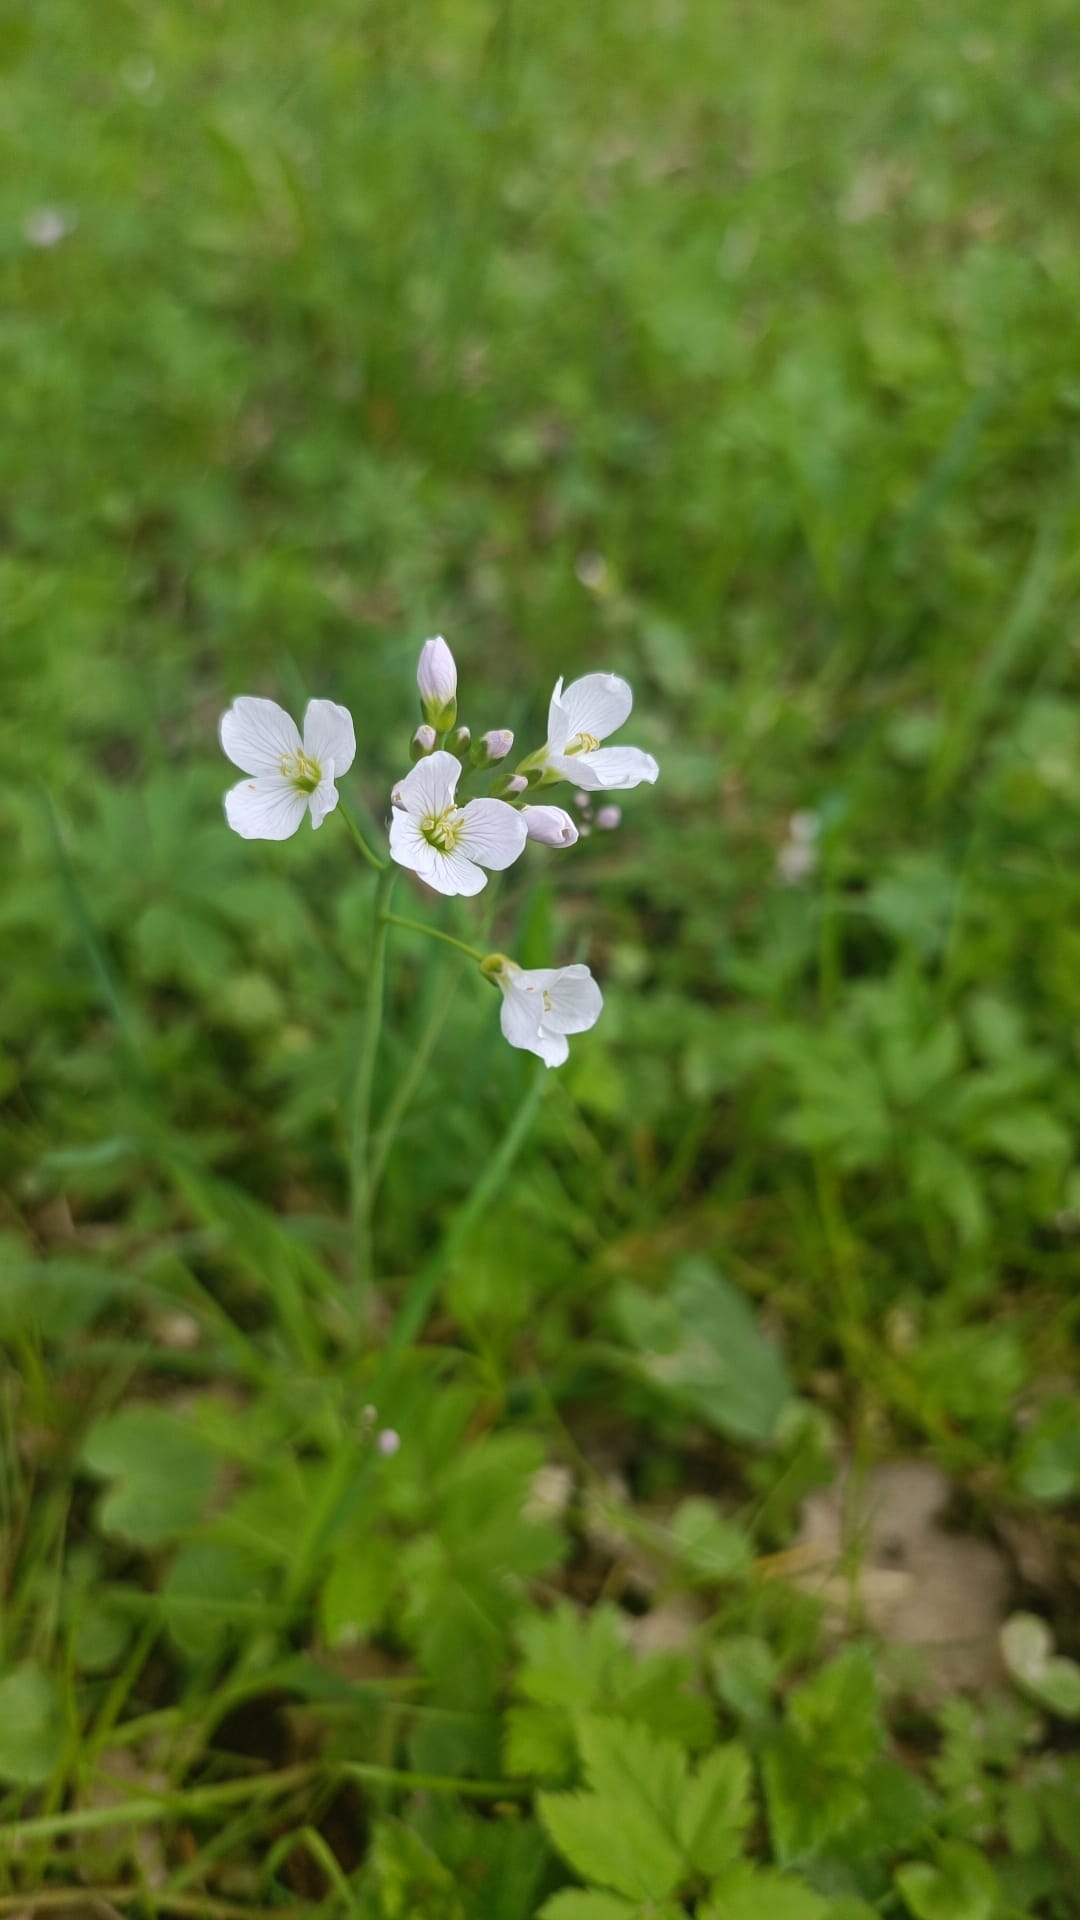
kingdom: Plantae
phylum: Tracheophyta
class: Magnoliopsida
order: Brassicales
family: Brassicaceae
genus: Cardamine
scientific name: Cardamine pratensis
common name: Cuckoo flower
